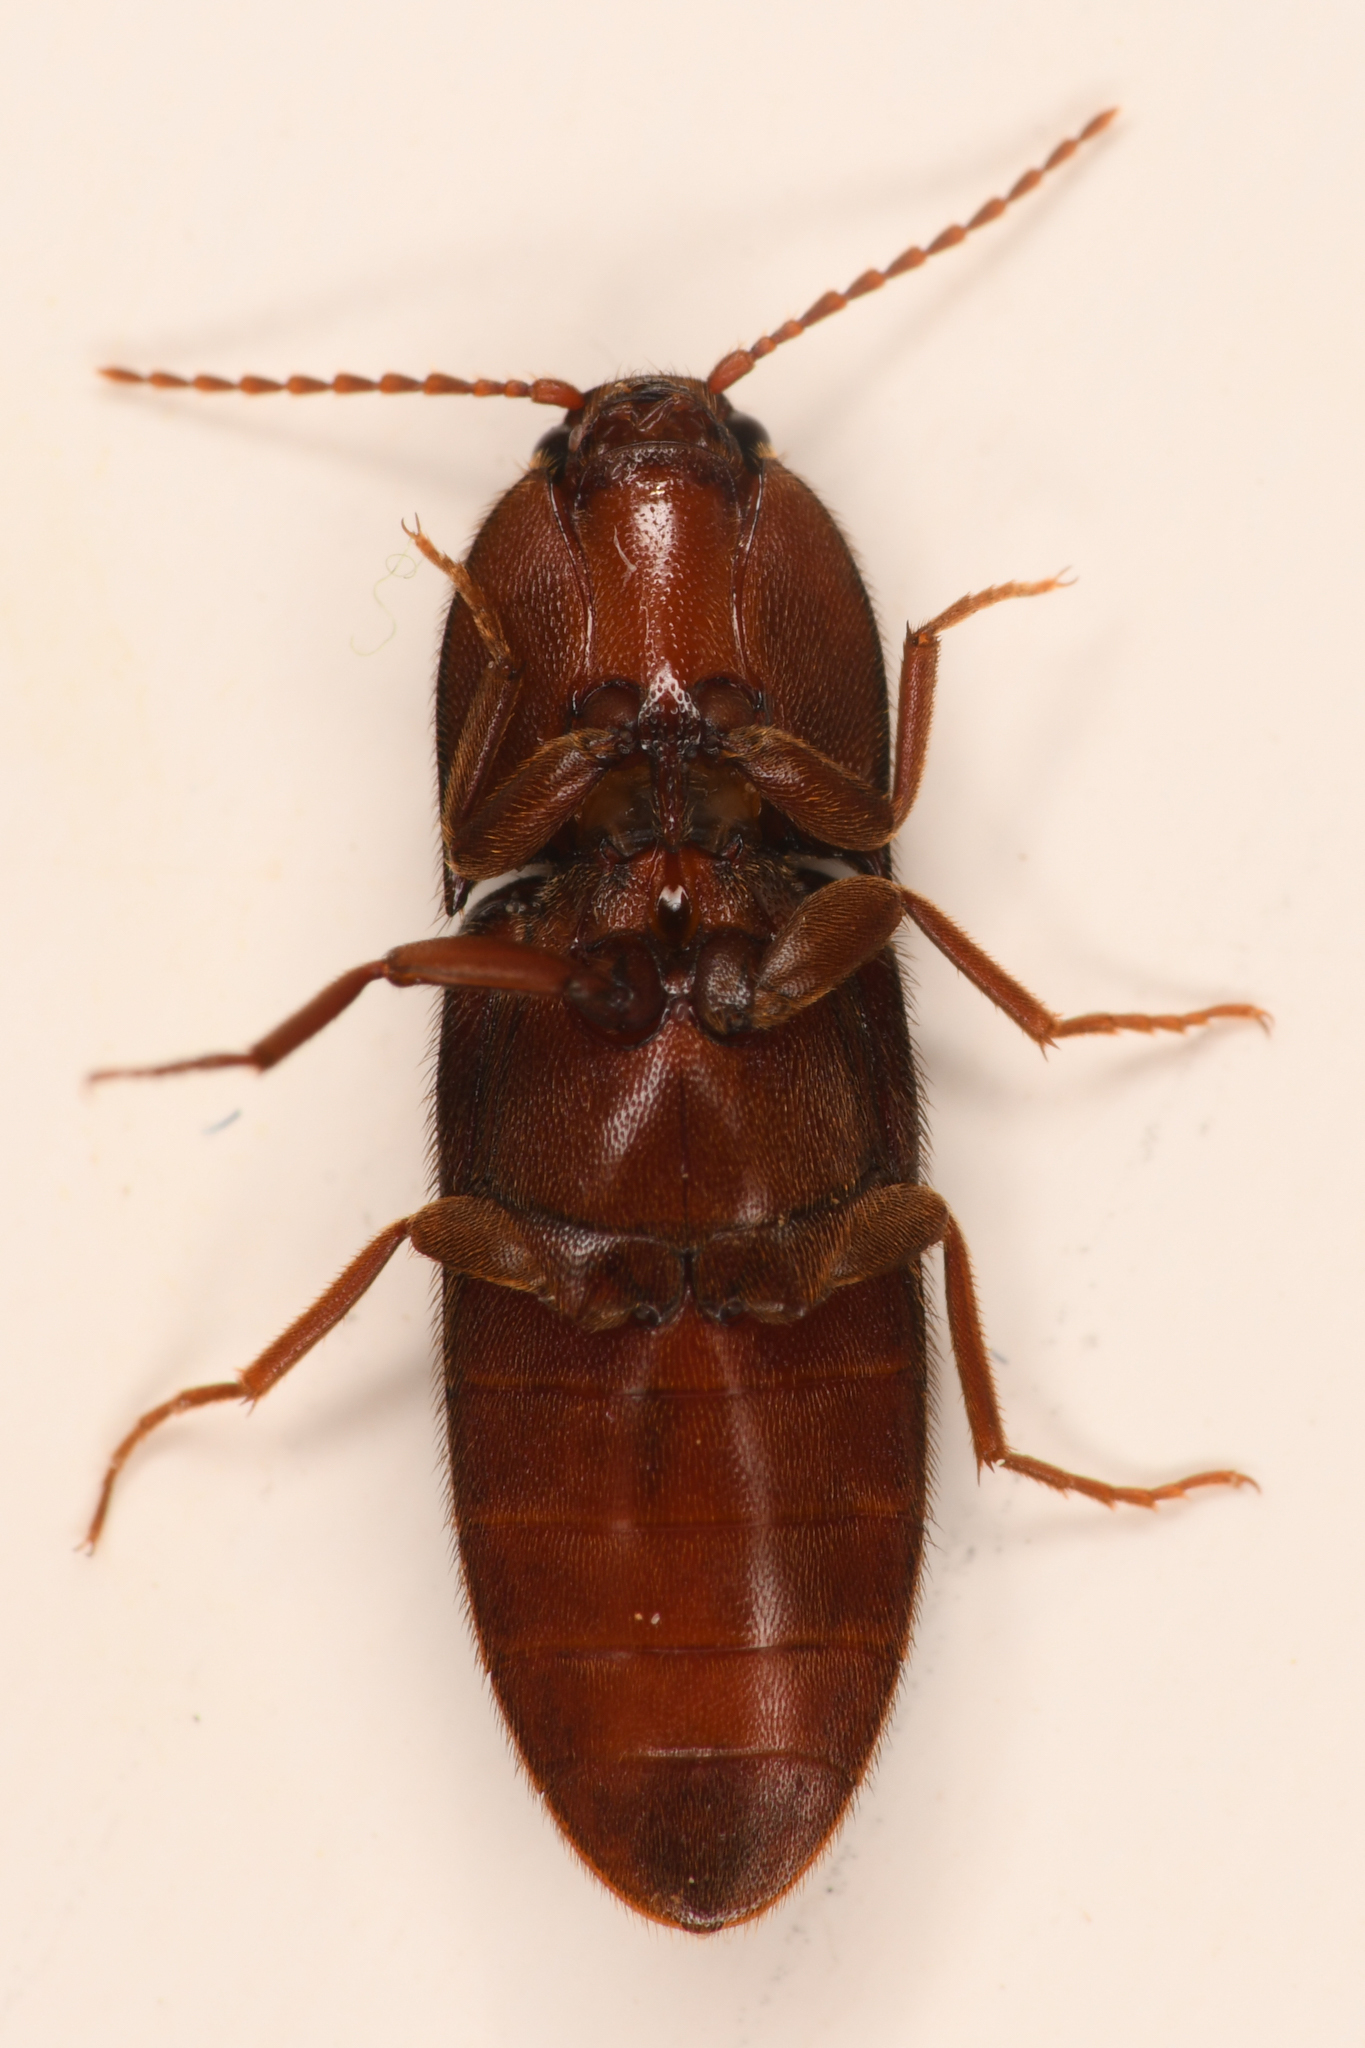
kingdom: Animalia
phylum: Arthropoda
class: Insecta
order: Coleoptera
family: Elateridae
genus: Ampedus
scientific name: Ampedus rhodopus
